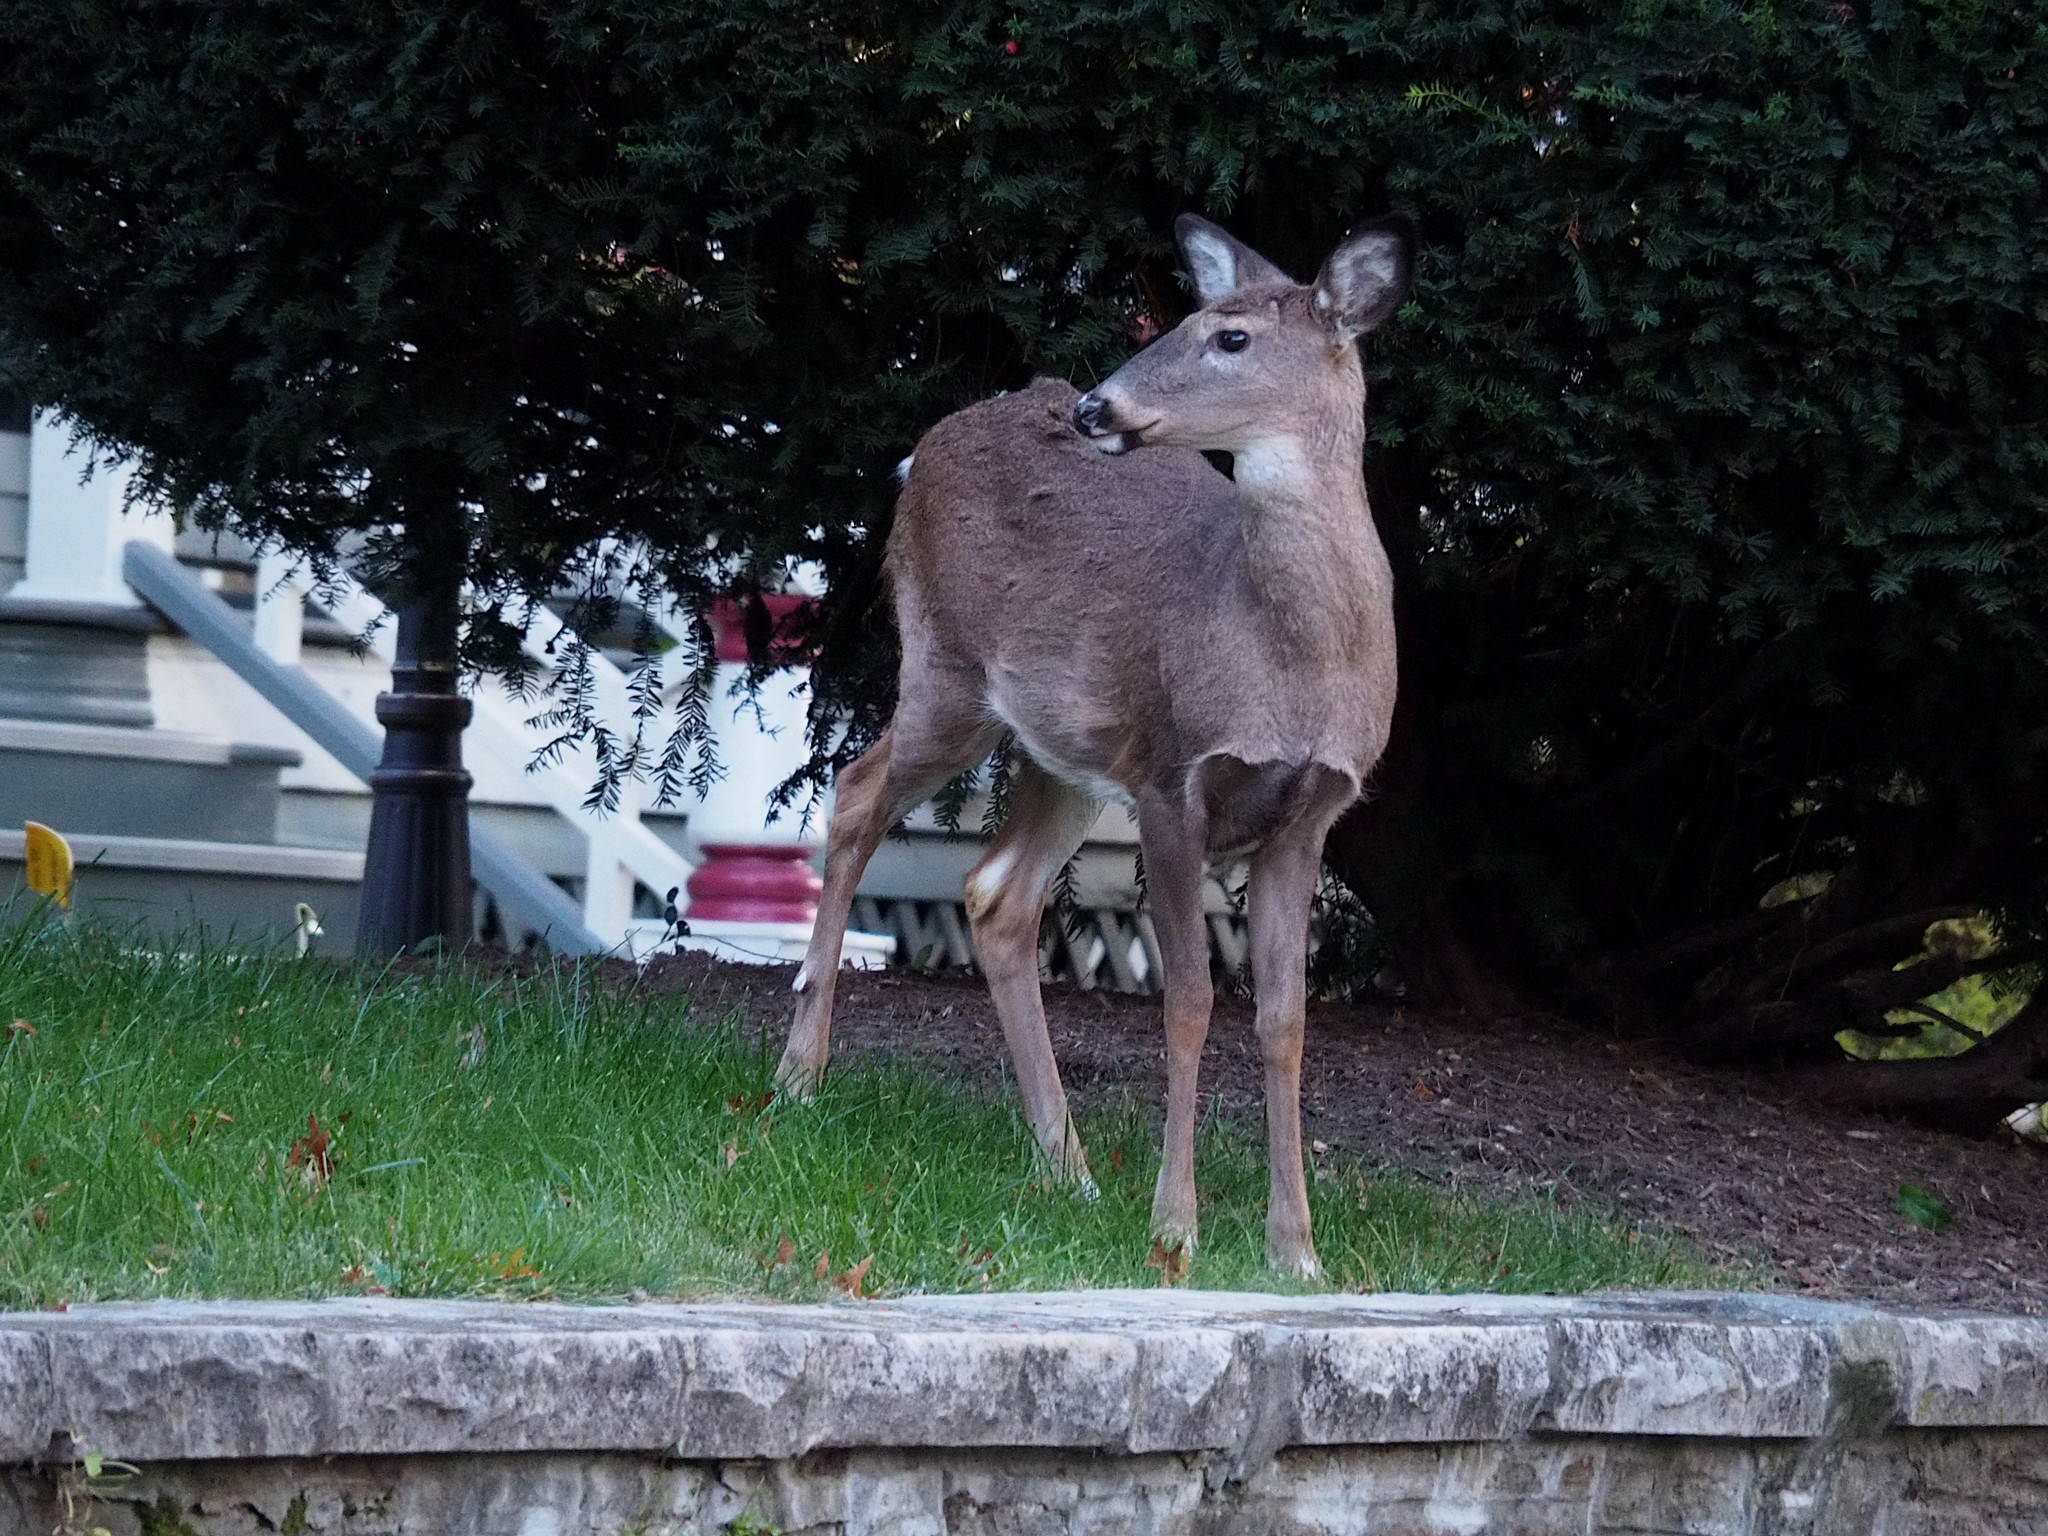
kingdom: Animalia
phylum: Chordata
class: Mammalia
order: Artiodactyla
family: Cervidae
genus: Odocoileus
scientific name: Odocoileus virginianus
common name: White-tailed deer
